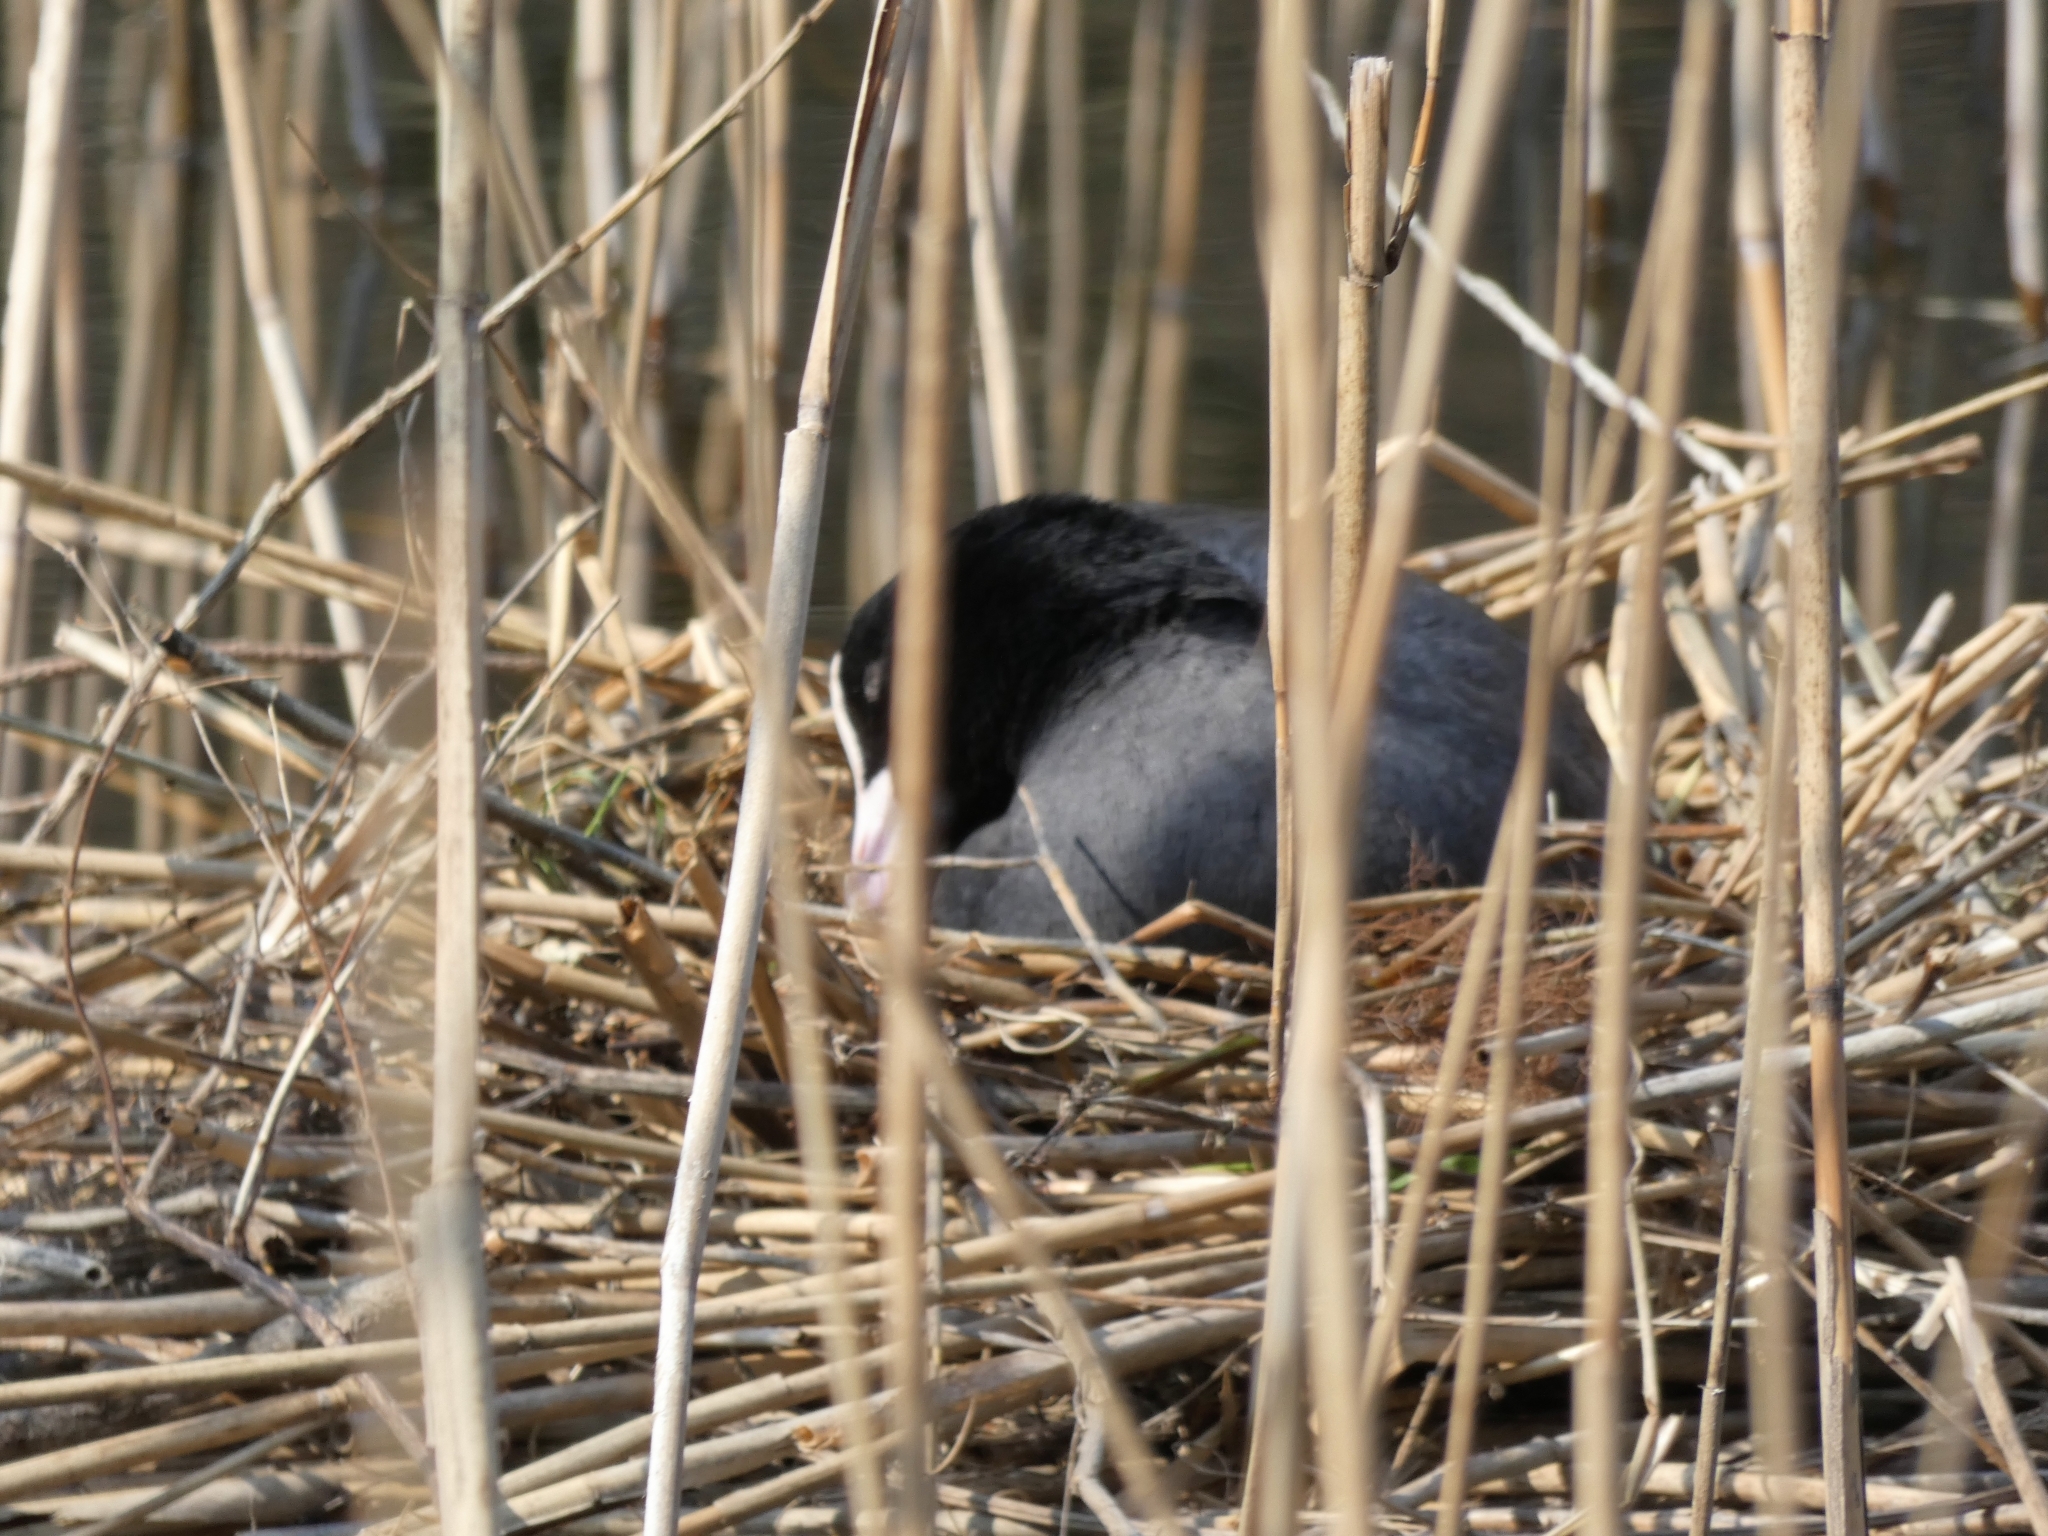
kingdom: Animalia
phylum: Chordata
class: Aves
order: Gruiformes
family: Rallidae
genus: Fulica
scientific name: Fulica atra
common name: Eurasian coot
